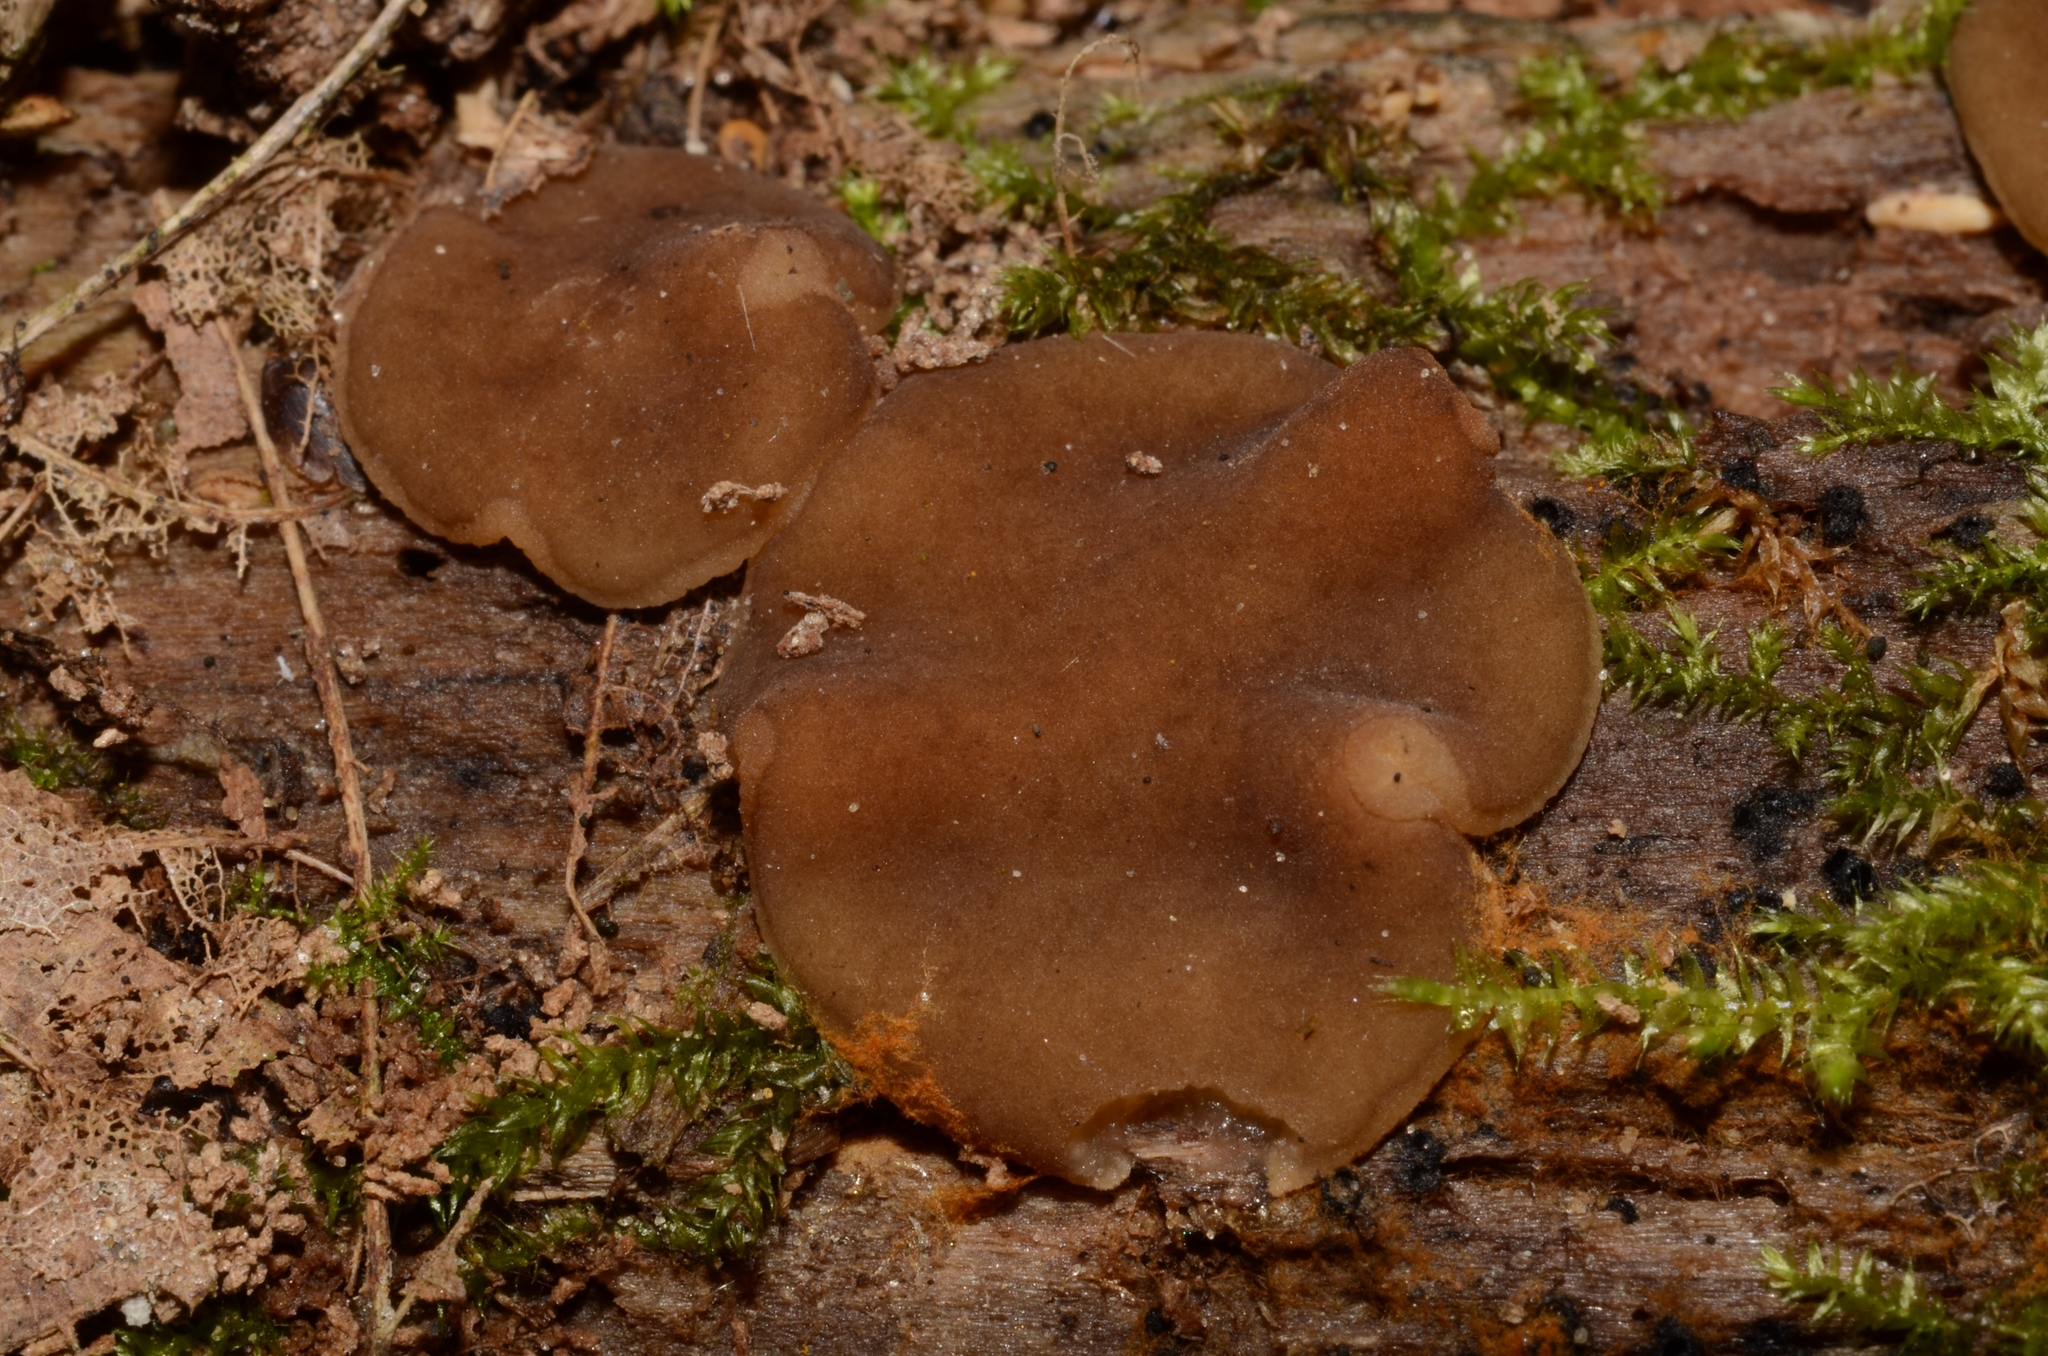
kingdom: Fungi
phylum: Ascomycota
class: Pezizomycetes
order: Pezizales
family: Rhizinaceae
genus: Psilopezia
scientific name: Psilopezia nummularia
